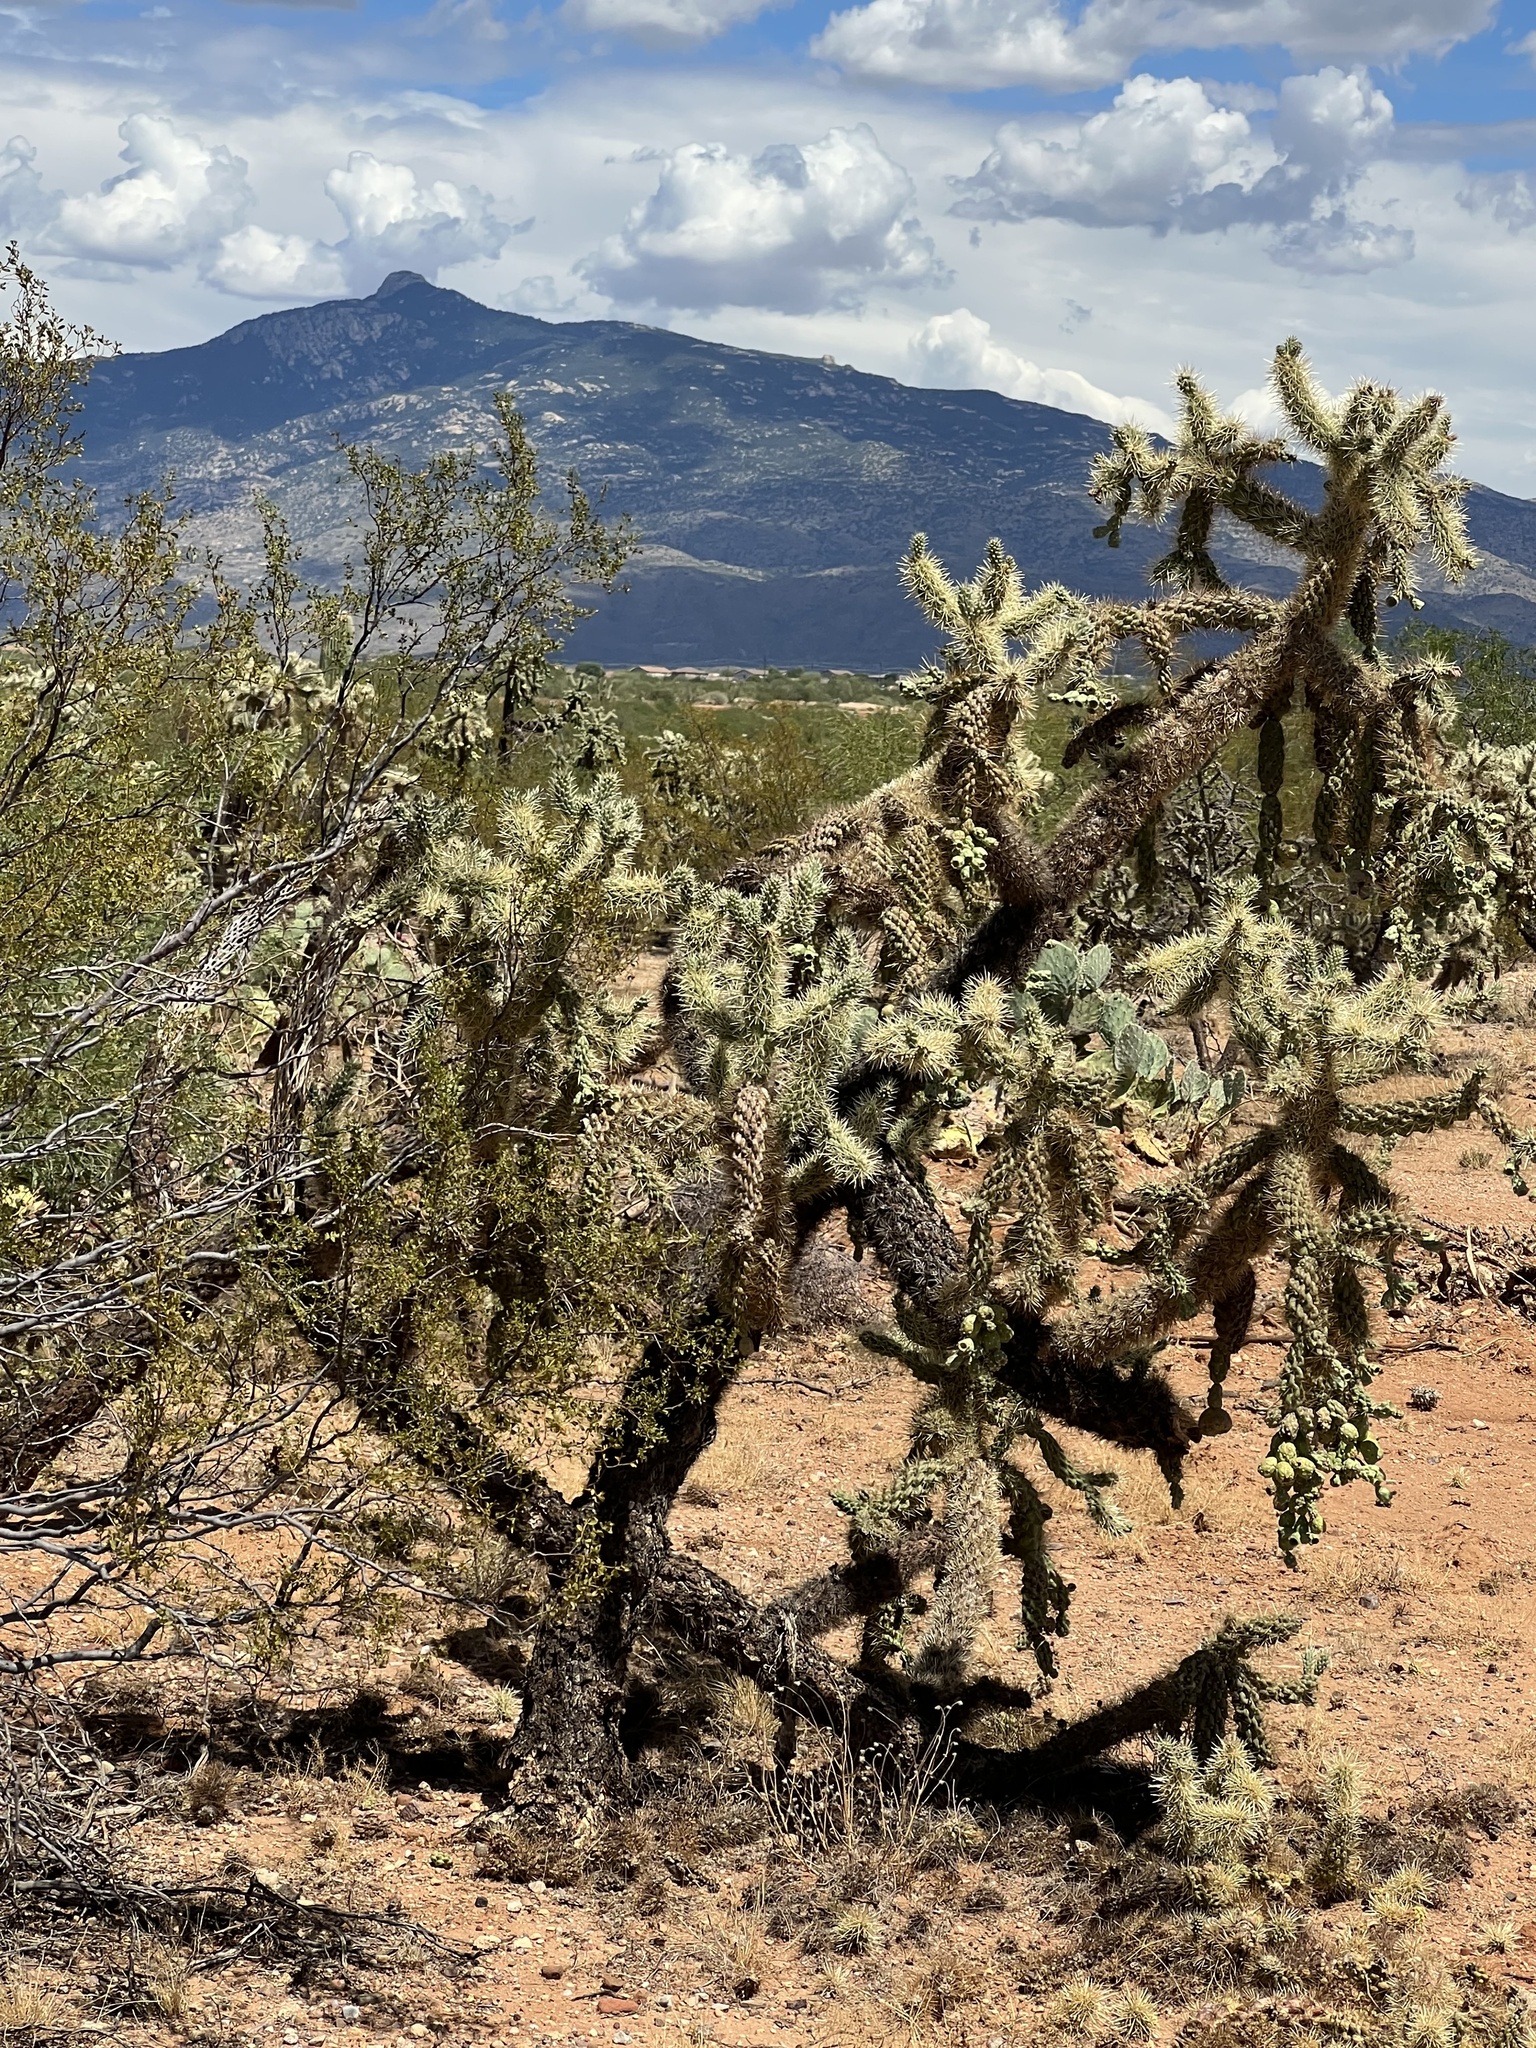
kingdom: Plantae
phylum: Tracheophyta
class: Magnoliopsida
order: Caryophyllales
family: Cactaceae
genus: Cylindropuntia
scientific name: Cylindropuntia fulgida
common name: Jumping cholla
